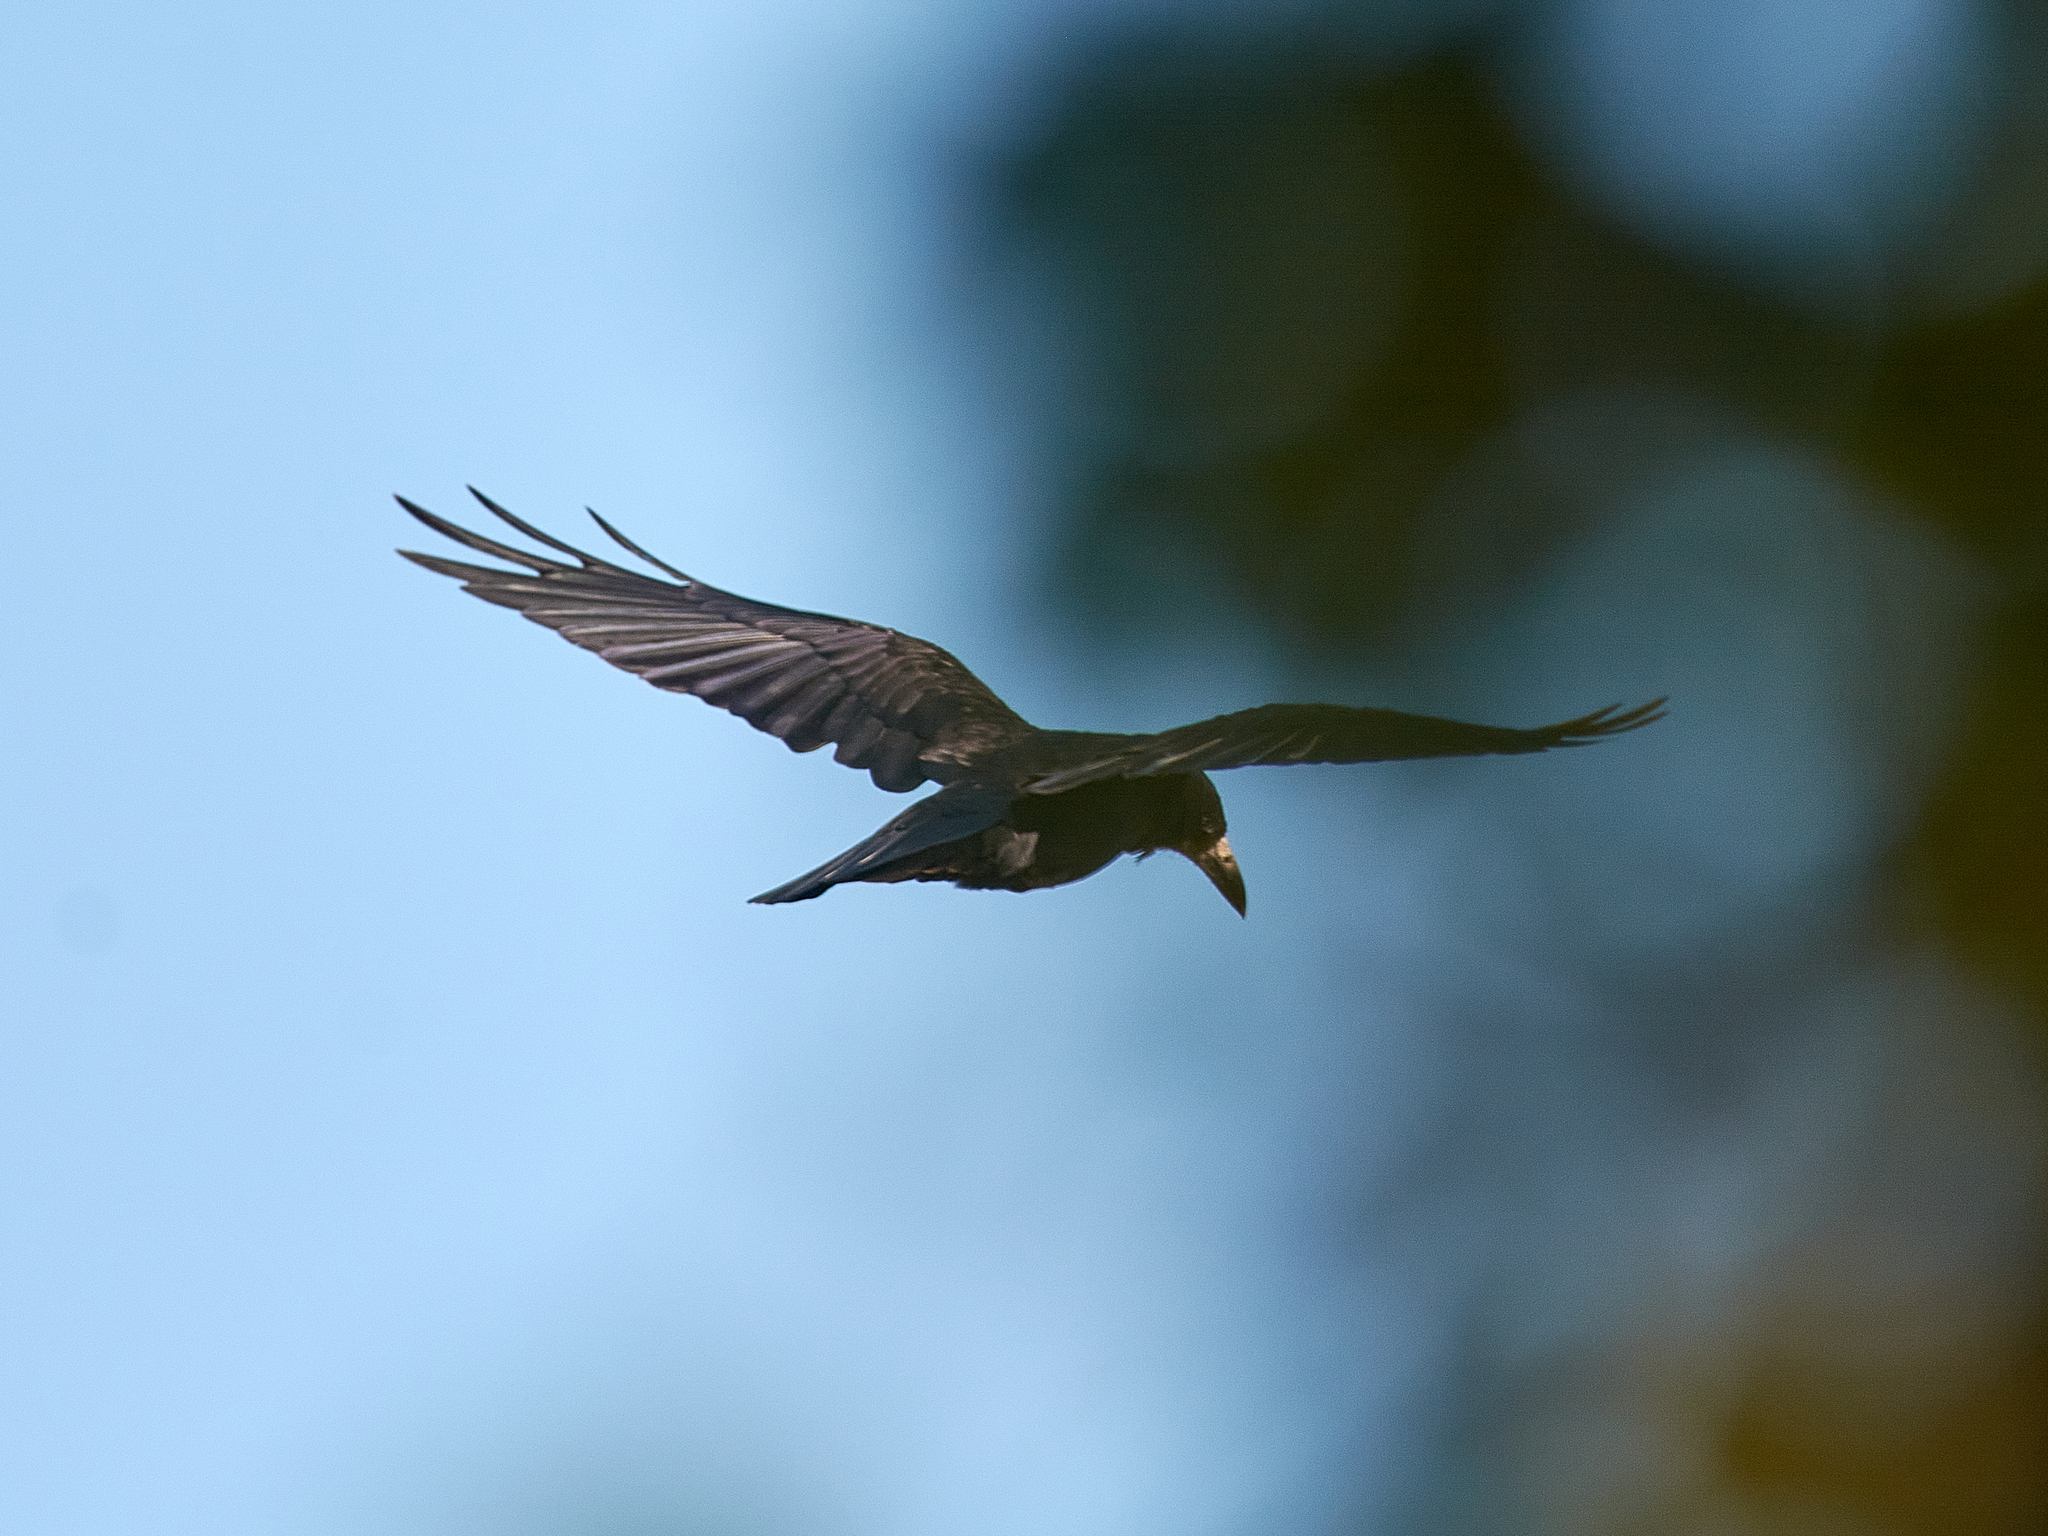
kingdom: Animalia
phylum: Chordata
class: Aves
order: Passeriformes
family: Corvidae
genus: Corvus
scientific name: Corvus frugilegus
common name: Rook
